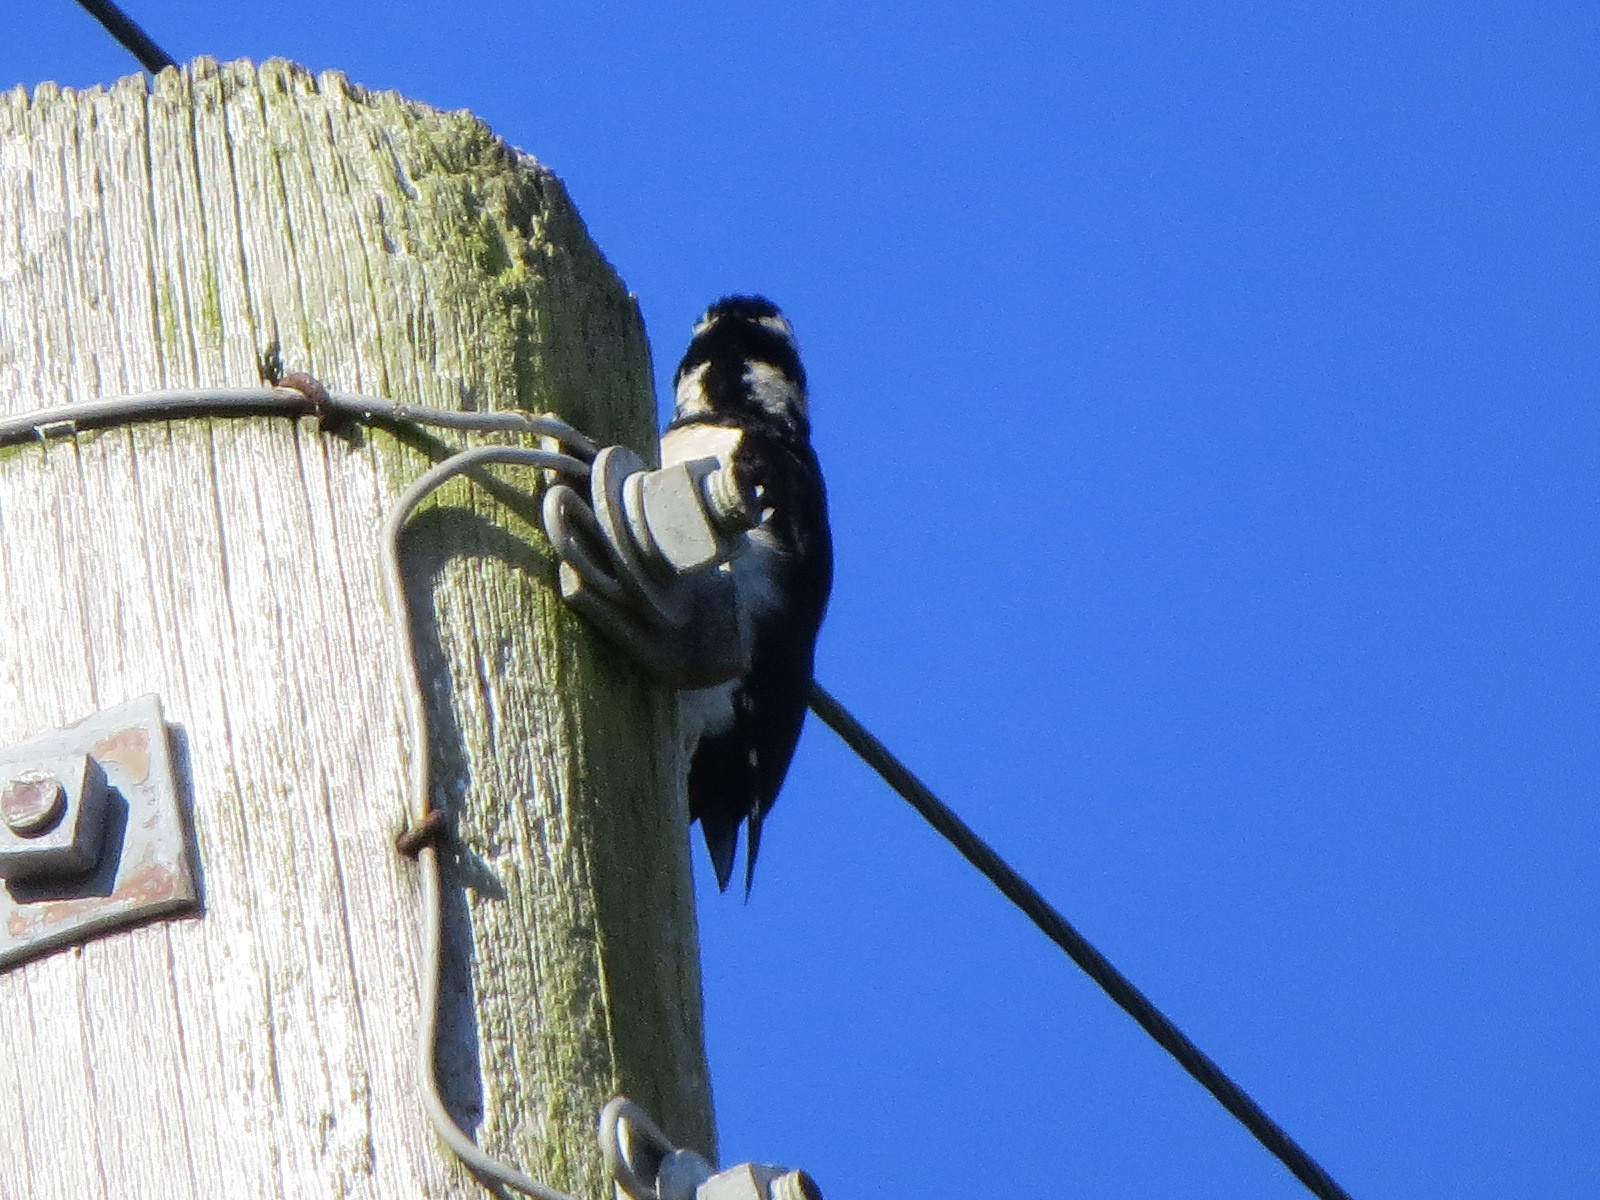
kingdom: Animalia
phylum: Chordata
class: Aves
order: Piciformes
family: Picidae
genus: Leuconotopicus
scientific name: Leuconotopicus villosus
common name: Hairy woodpecker
